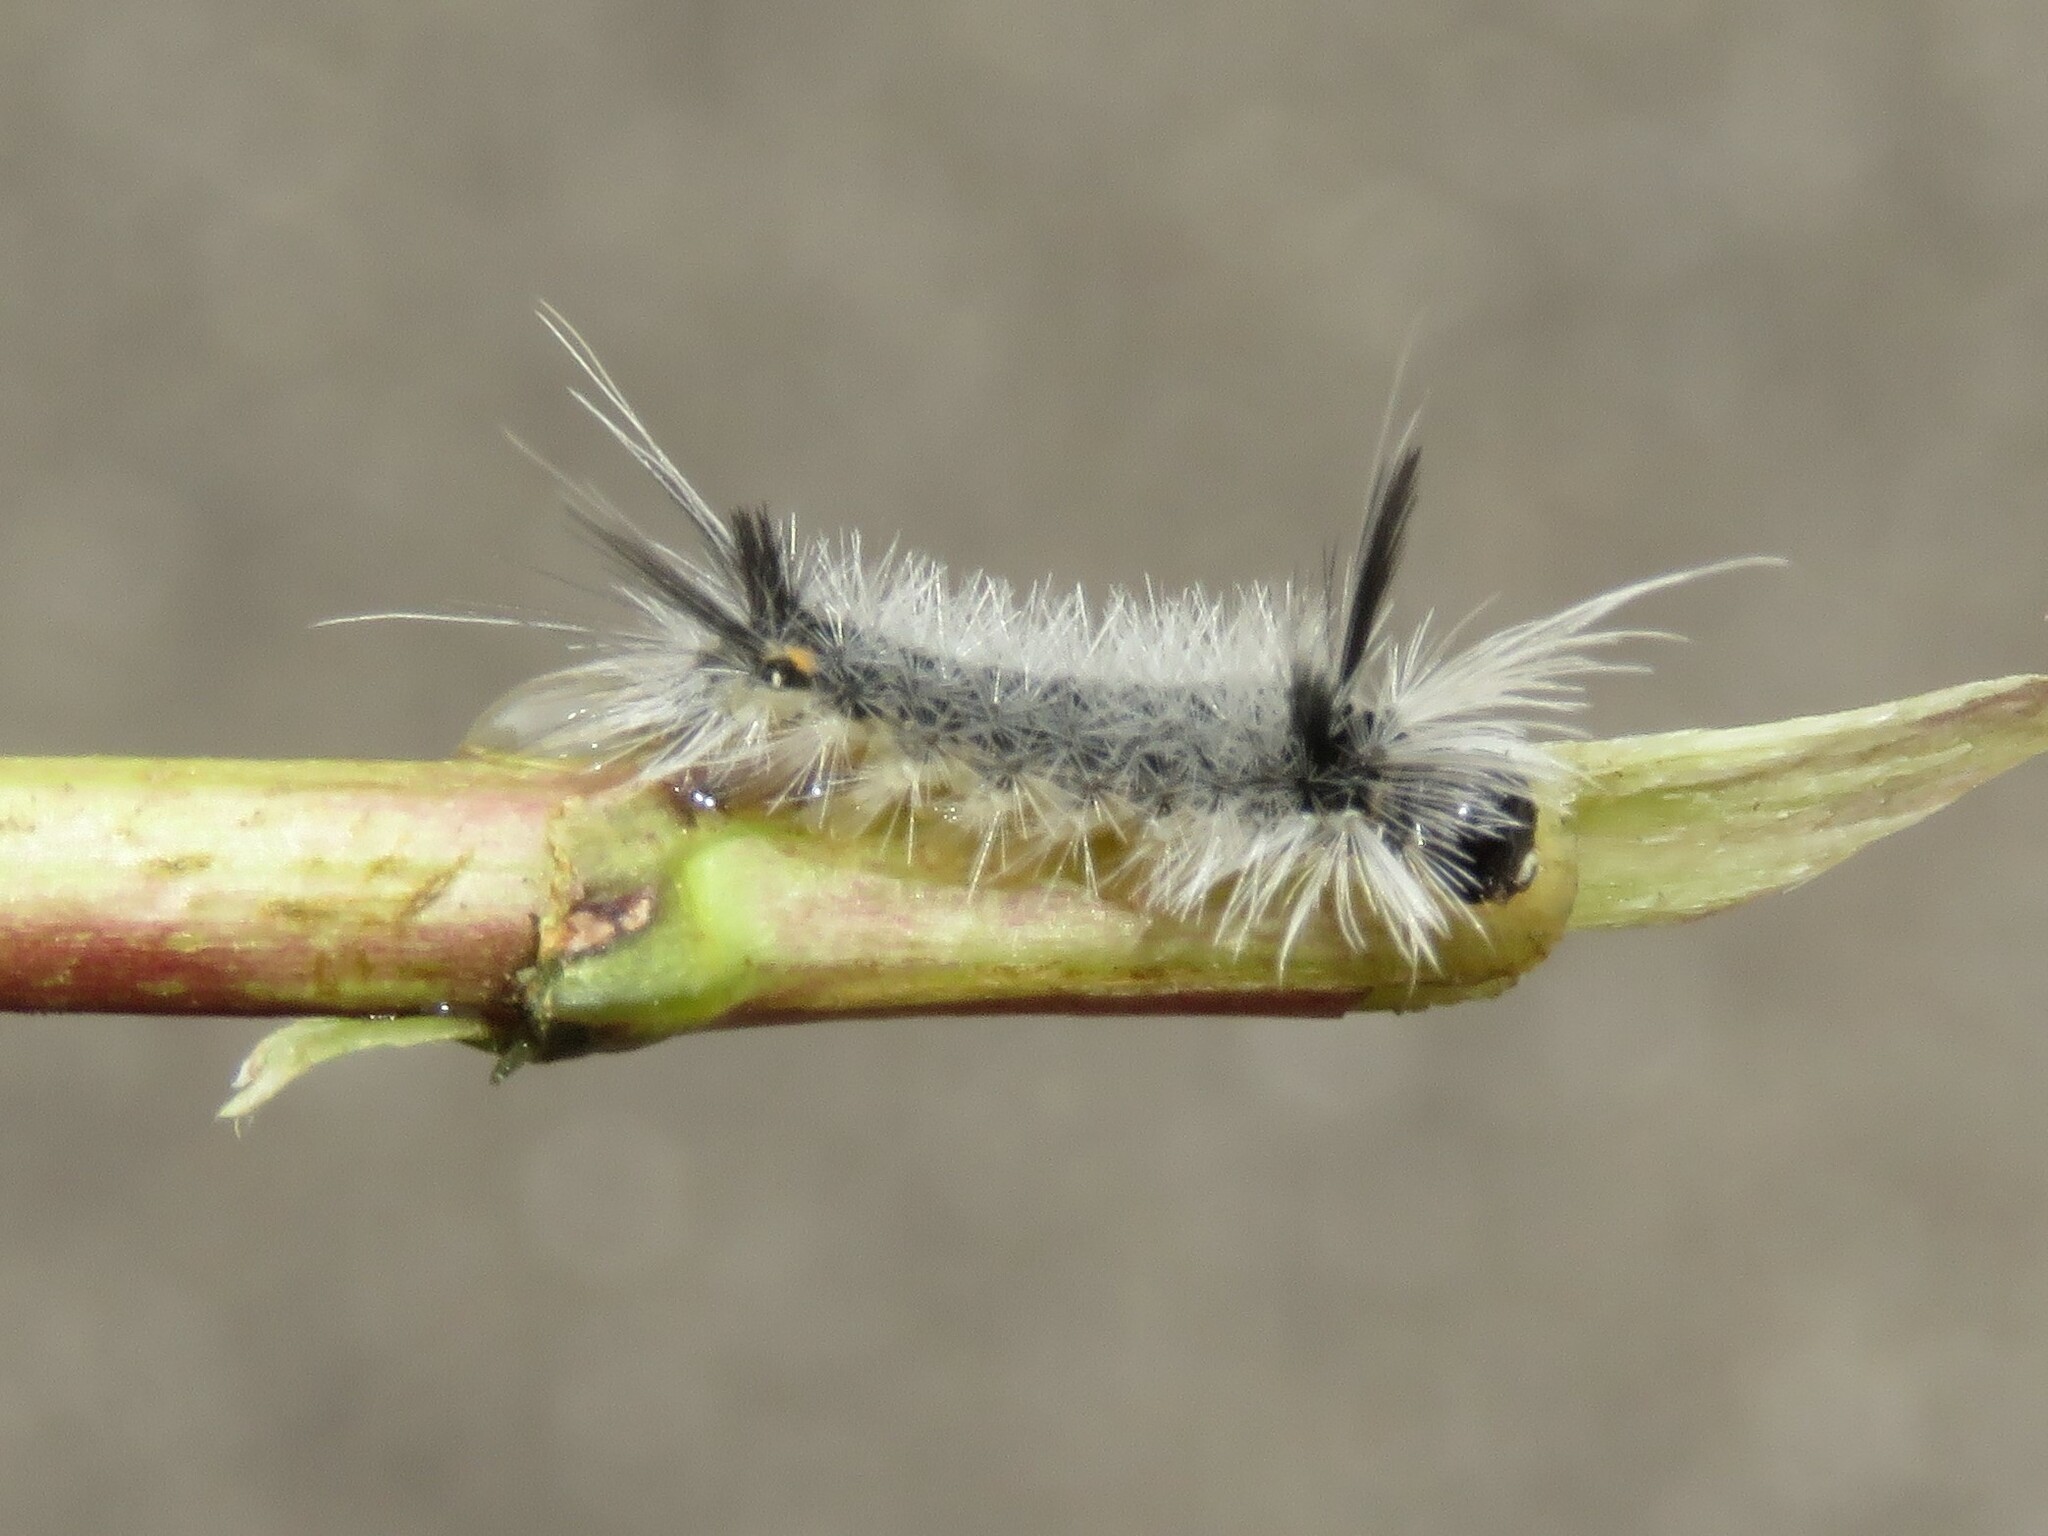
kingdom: Animalia
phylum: Arthropoda
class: Insecta
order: Lepidoptera
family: Erebidae
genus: Halysidota
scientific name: Halysidota tessellaris
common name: Banded tussock moth
